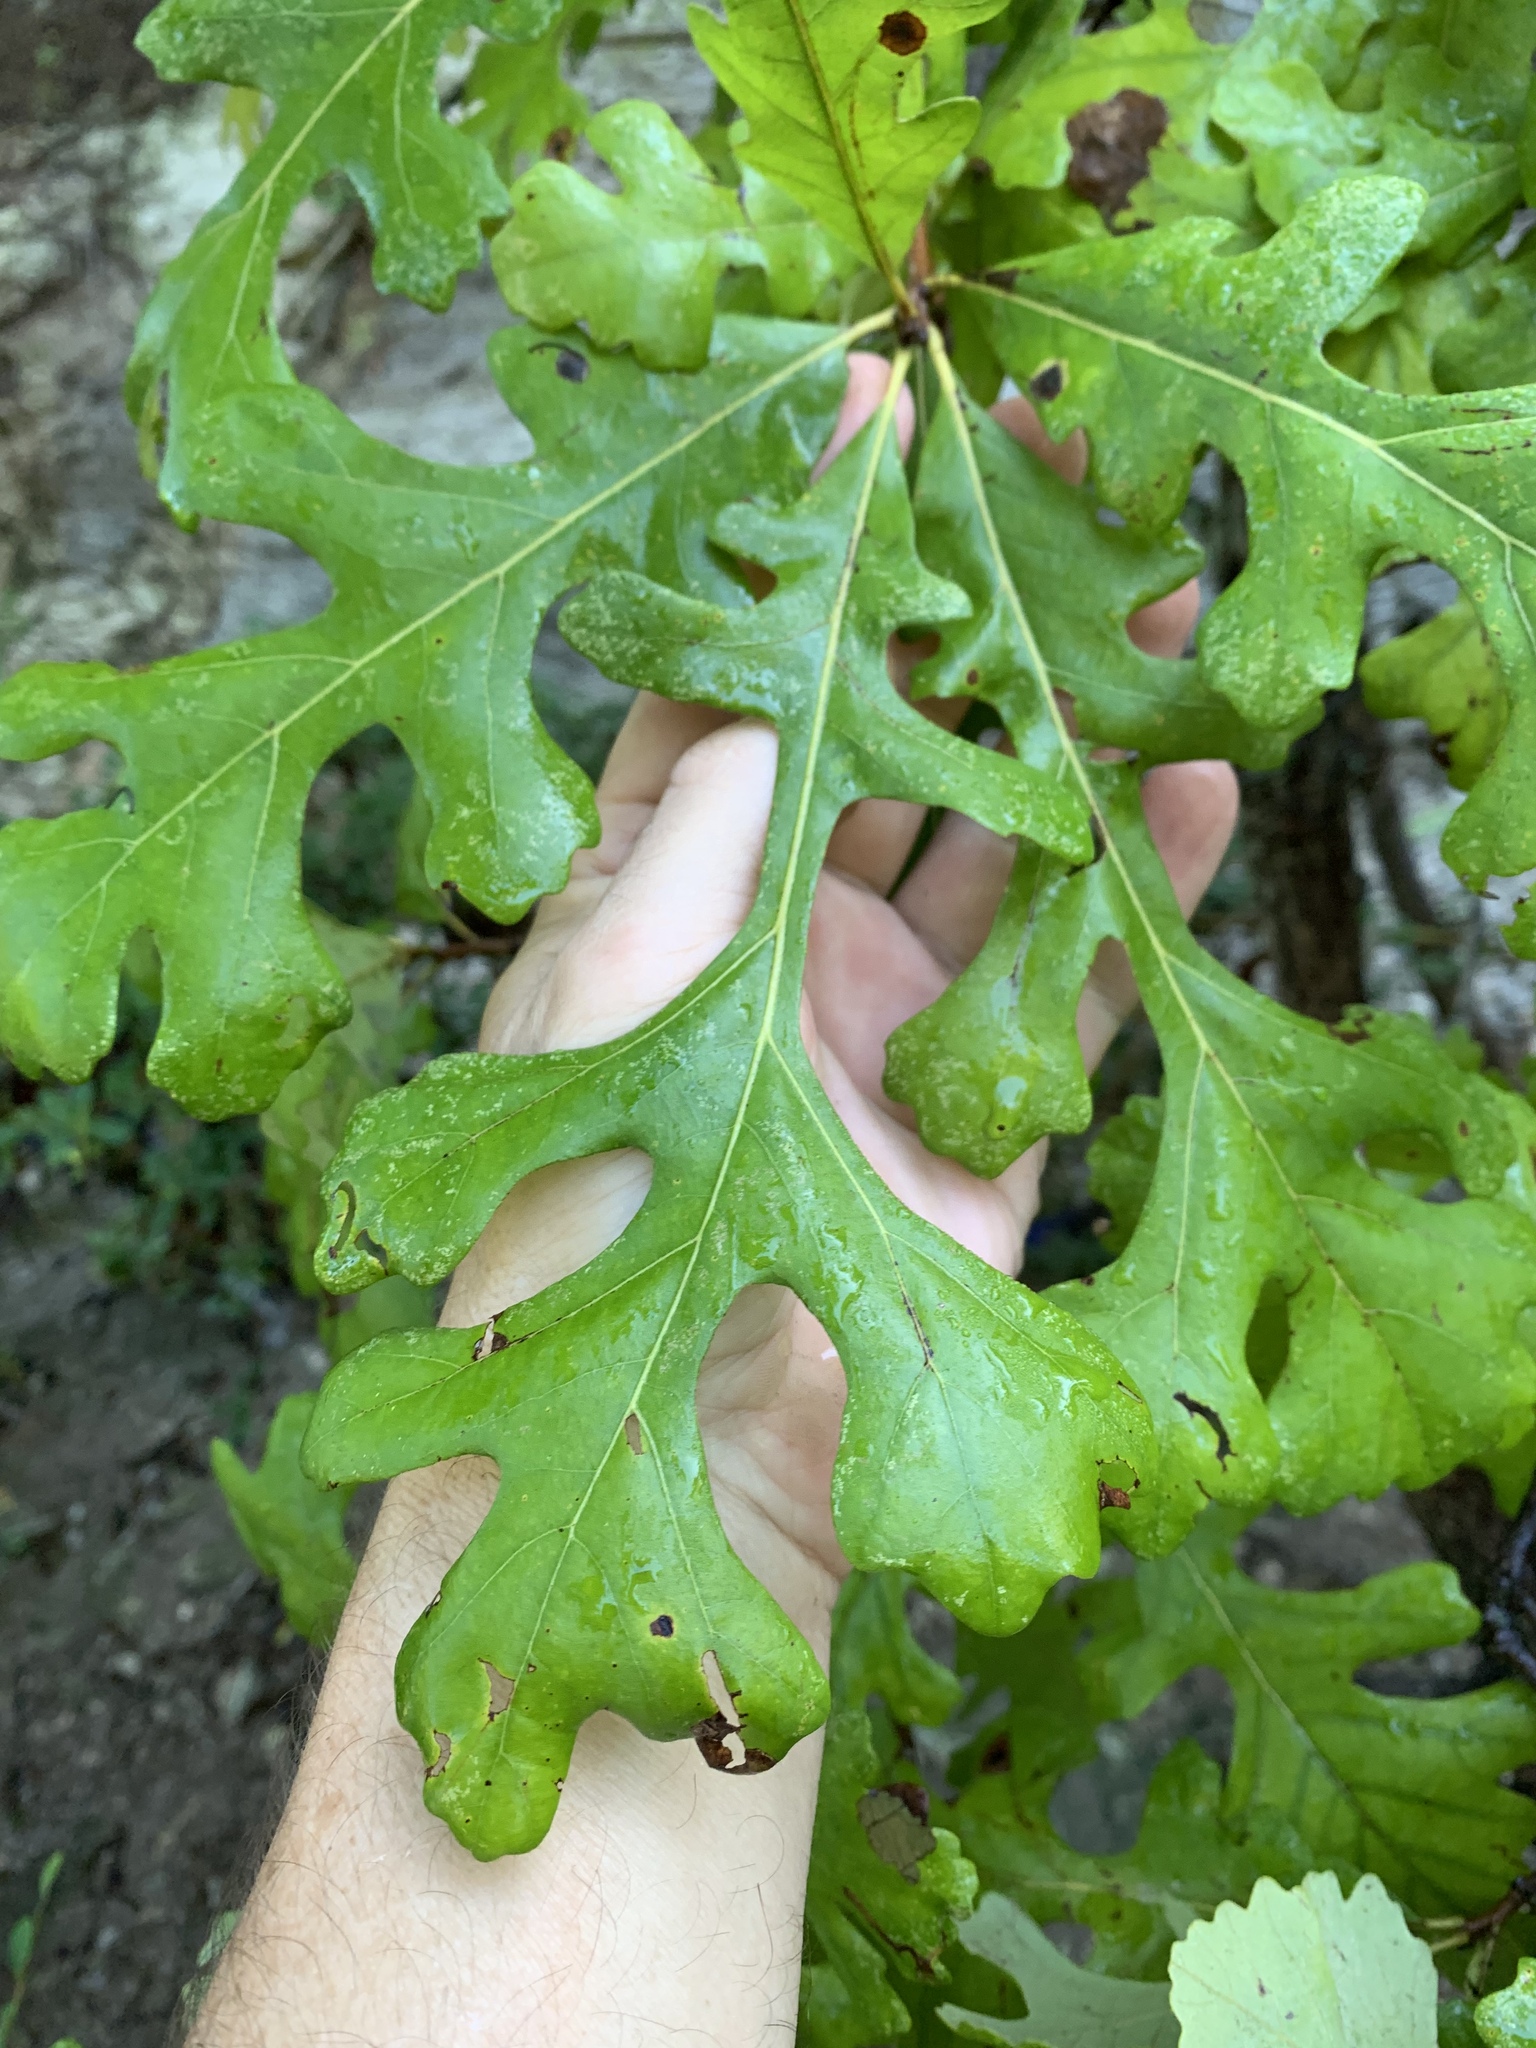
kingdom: Plantae
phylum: Tracheophyta
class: Magnoliopsida
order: Fagales
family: Fagaceae
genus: Quercus
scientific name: Quercus macrocarpa
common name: Bur oak
